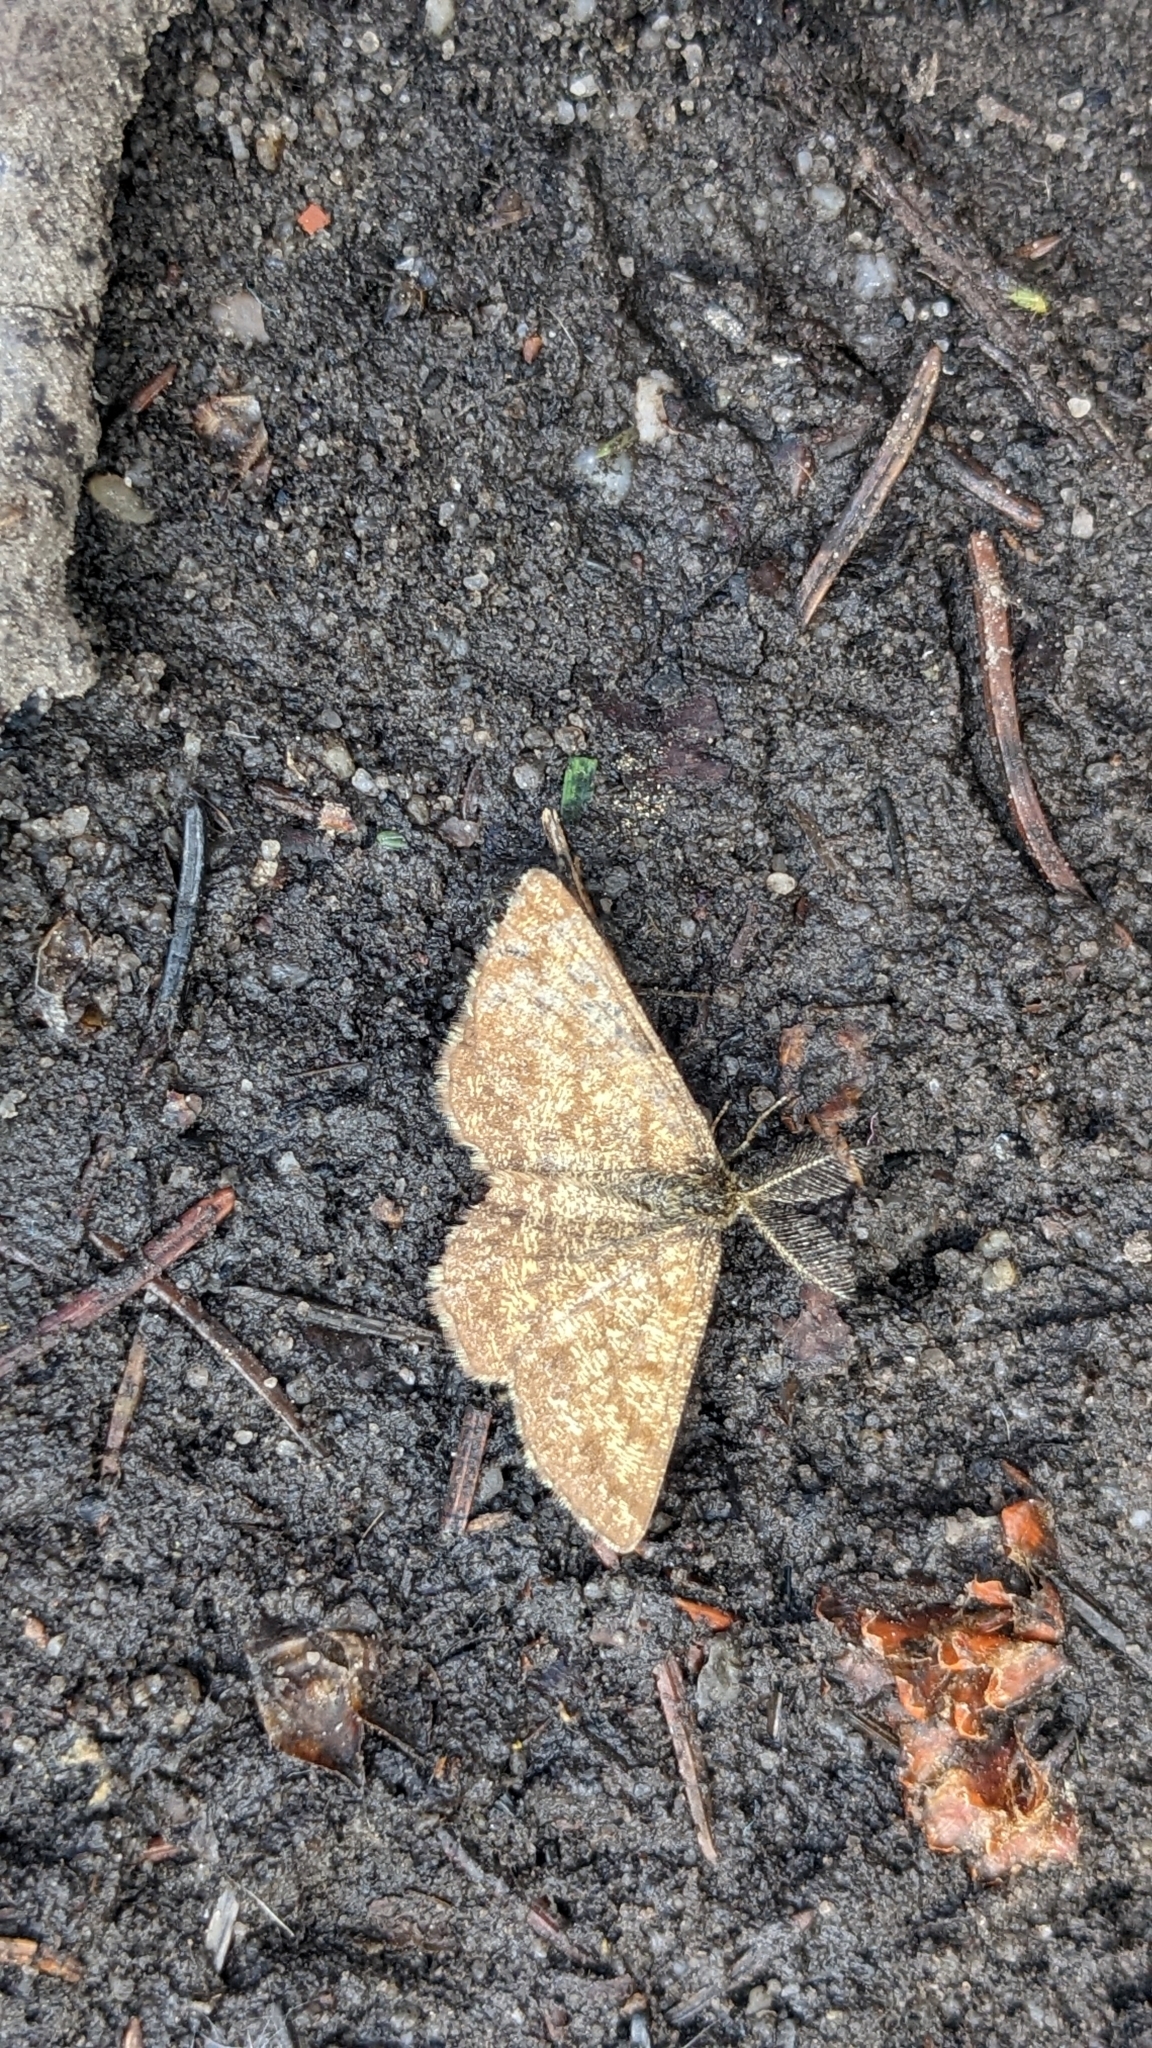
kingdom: Animalia
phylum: Arthropoda
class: Insecta
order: Lepidoptera
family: Geometridae
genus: Ematurga
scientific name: Ematurga atomaria
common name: Common heath
